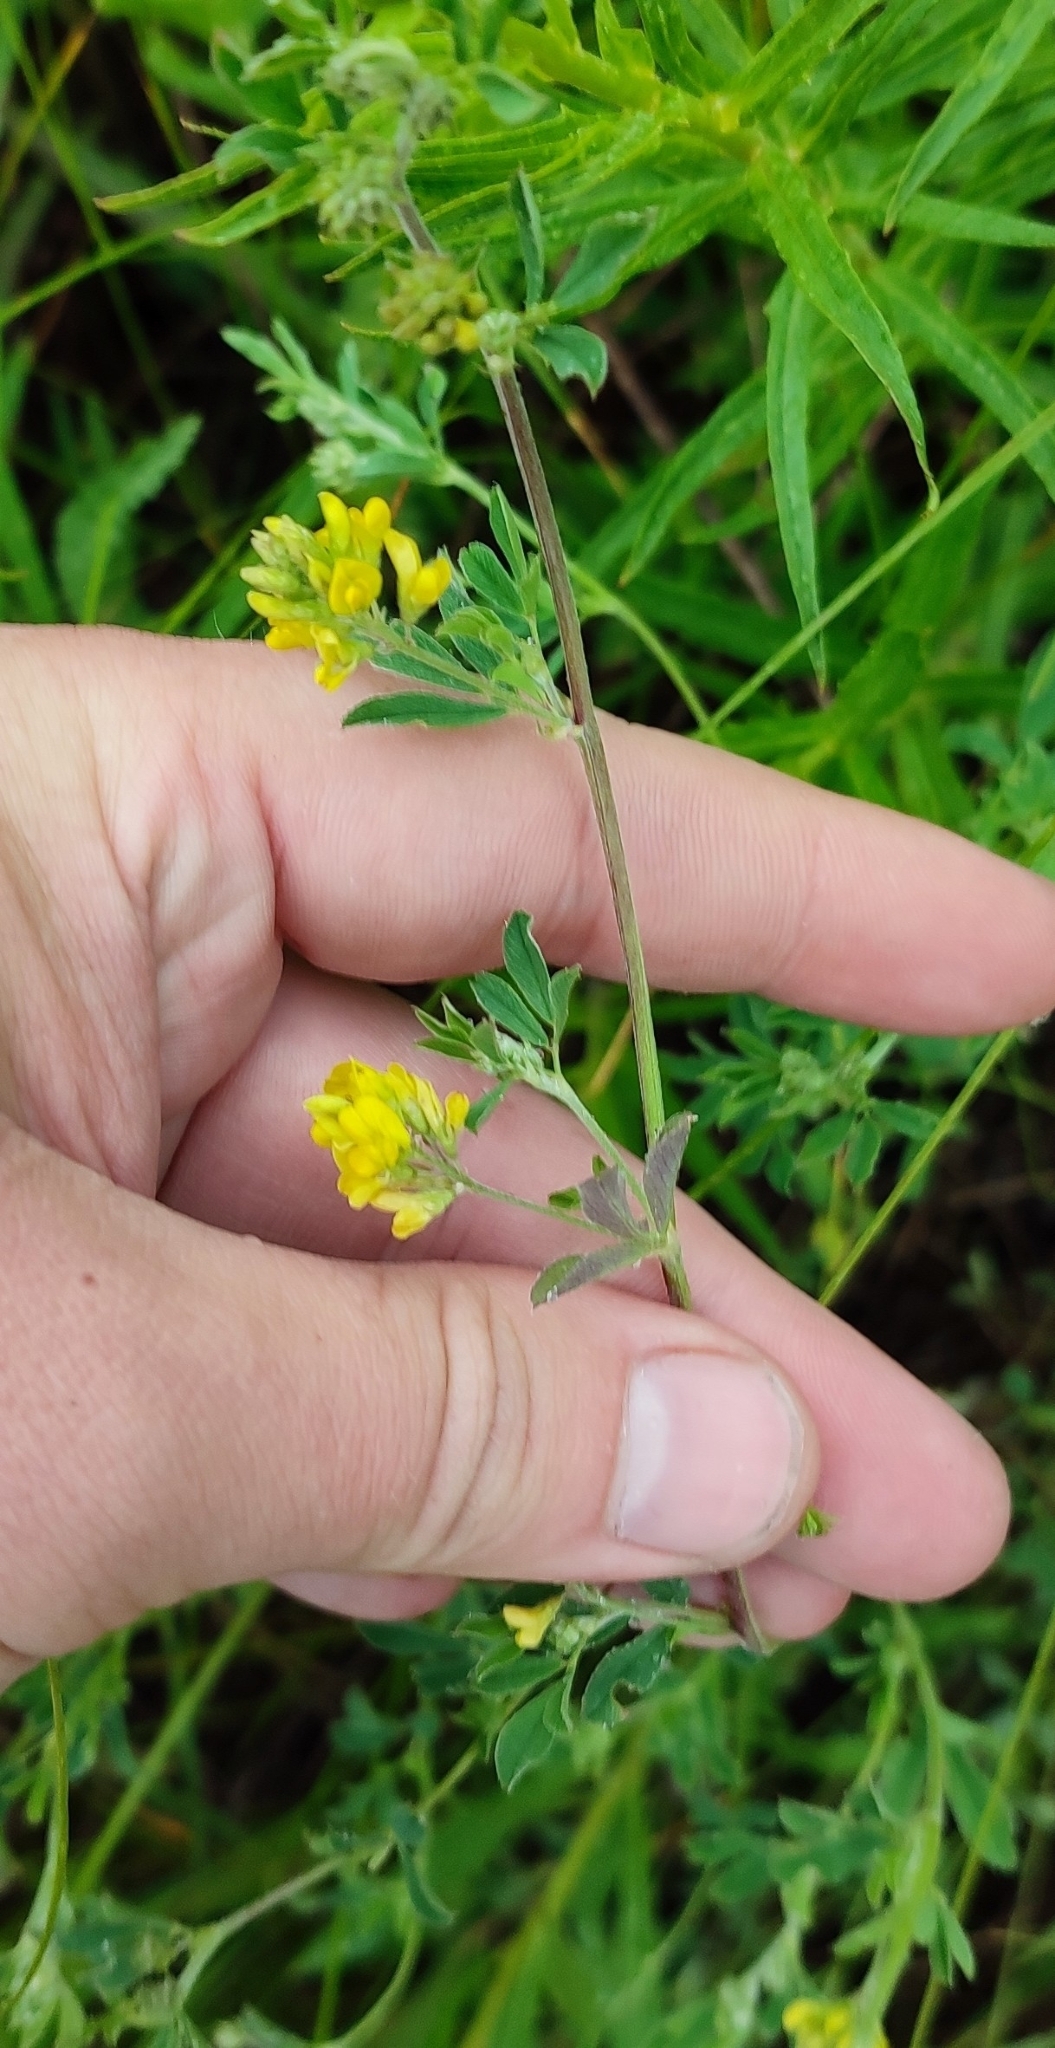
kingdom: Plantae
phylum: Tracheophyta
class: Magnoliopsida
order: Fabales
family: Fabaceae
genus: Medicago
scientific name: Medicago falcata
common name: Sickle medick
